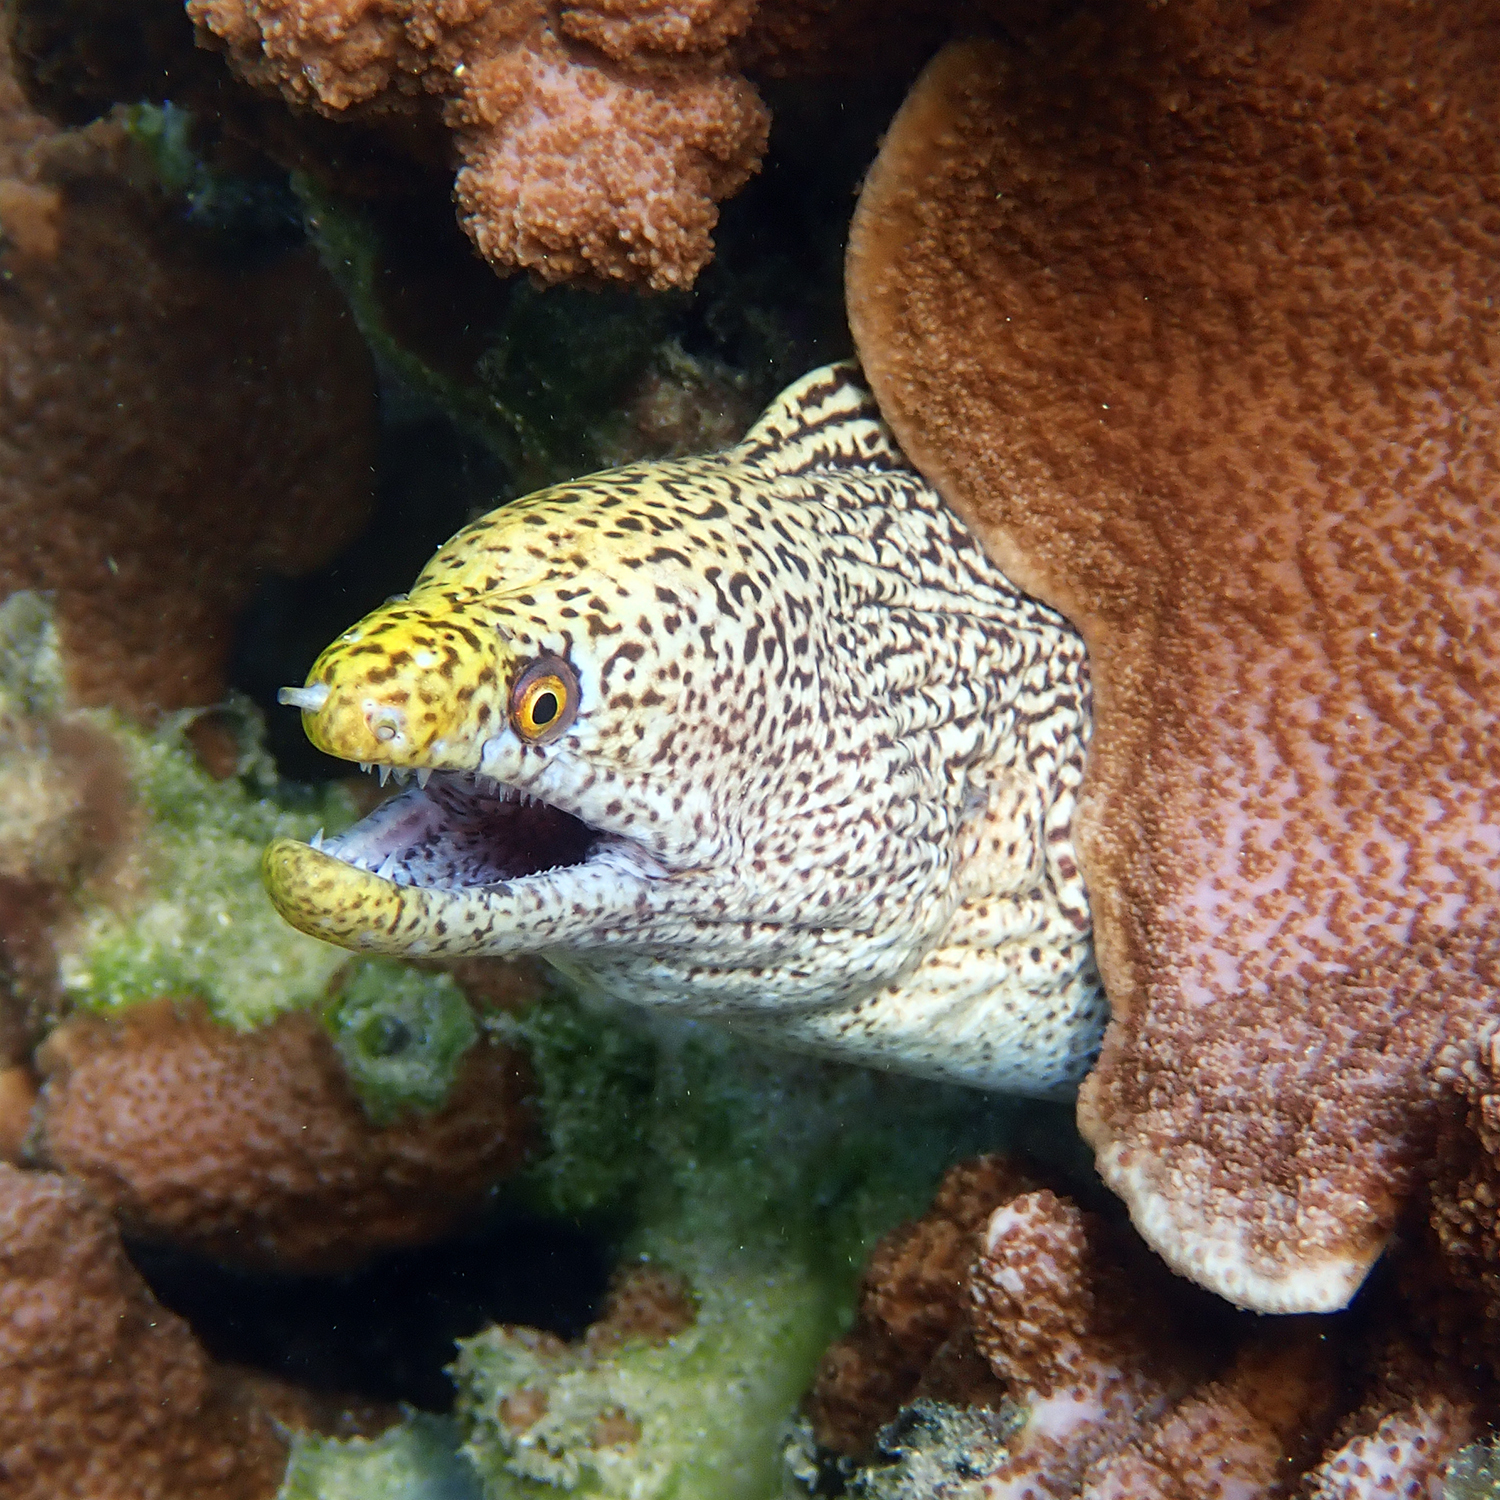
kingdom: Animalia
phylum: Chordata
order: Anguilliformes
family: Muraenidae
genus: Gymnothorax
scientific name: Gymnothorax eurostus
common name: Stout moray
